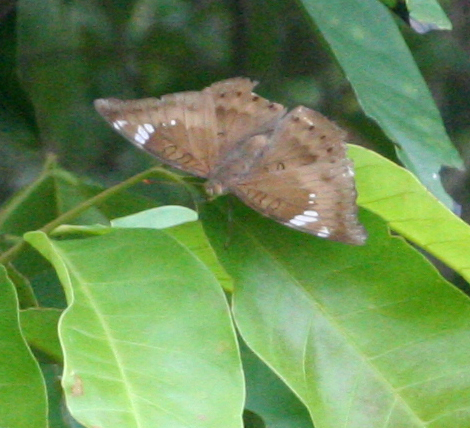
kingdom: Animalia
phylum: Arthropoda
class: Insecta
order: Lepidoptera
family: Nymphalidae
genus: Euthalia
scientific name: Euthalia aconthea
